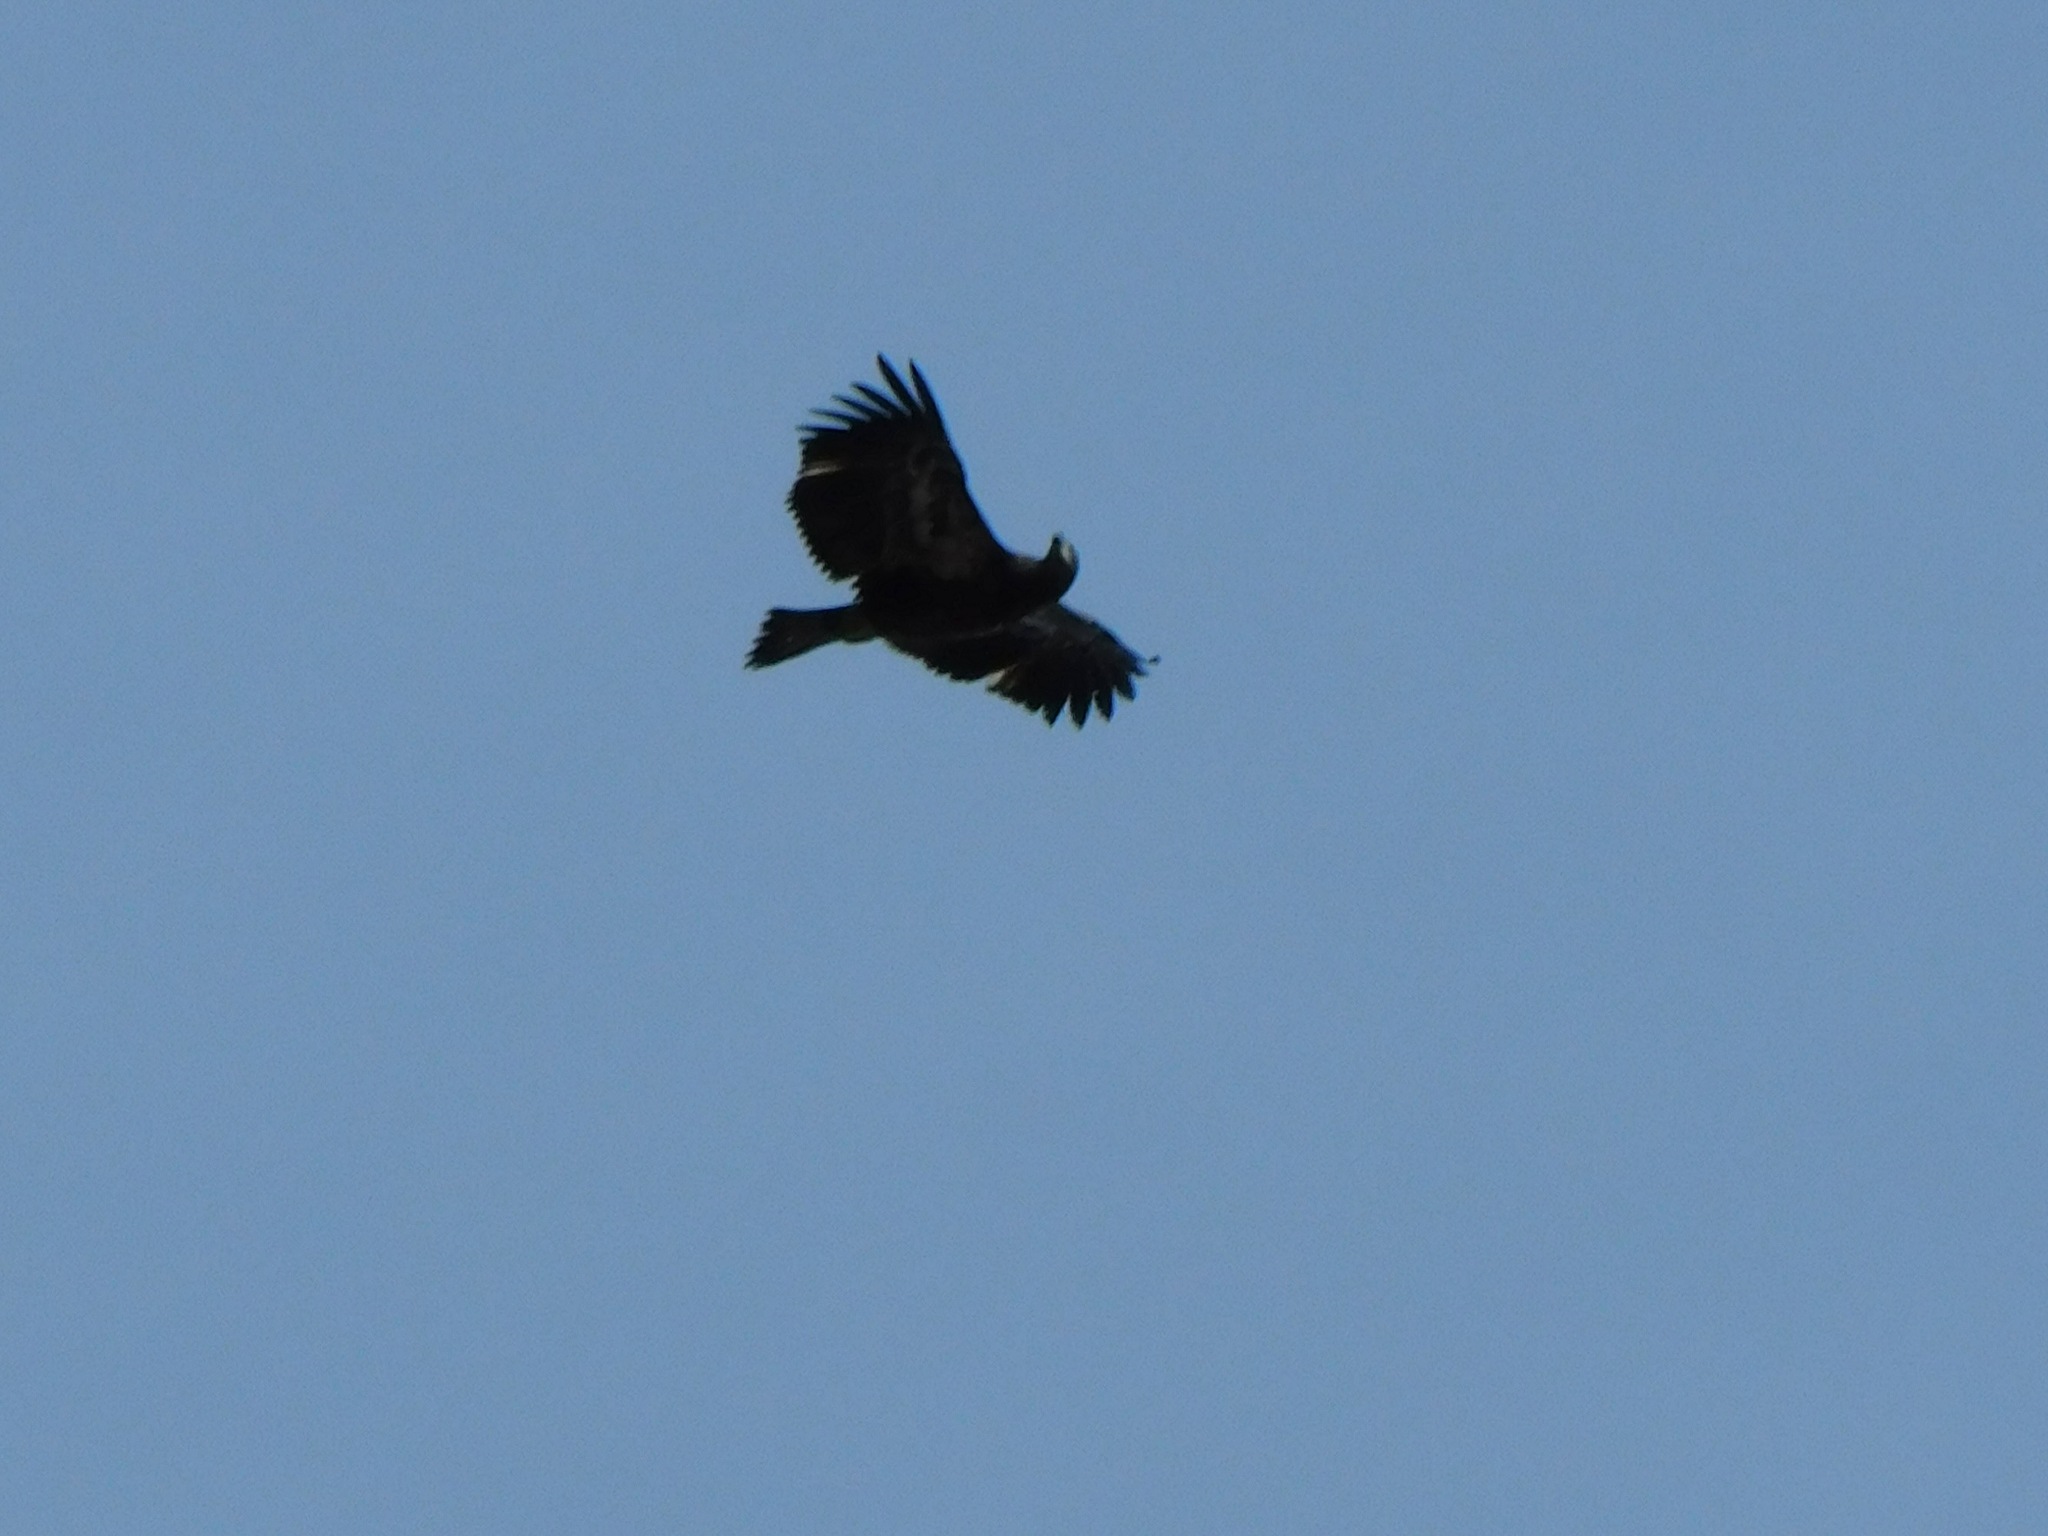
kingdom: Animalia
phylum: Chordata
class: Aves
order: Accipitriformes
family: Accipitridae
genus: Haliaeetus
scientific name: Haliaeetus leucocephalus
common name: Bald eagle
